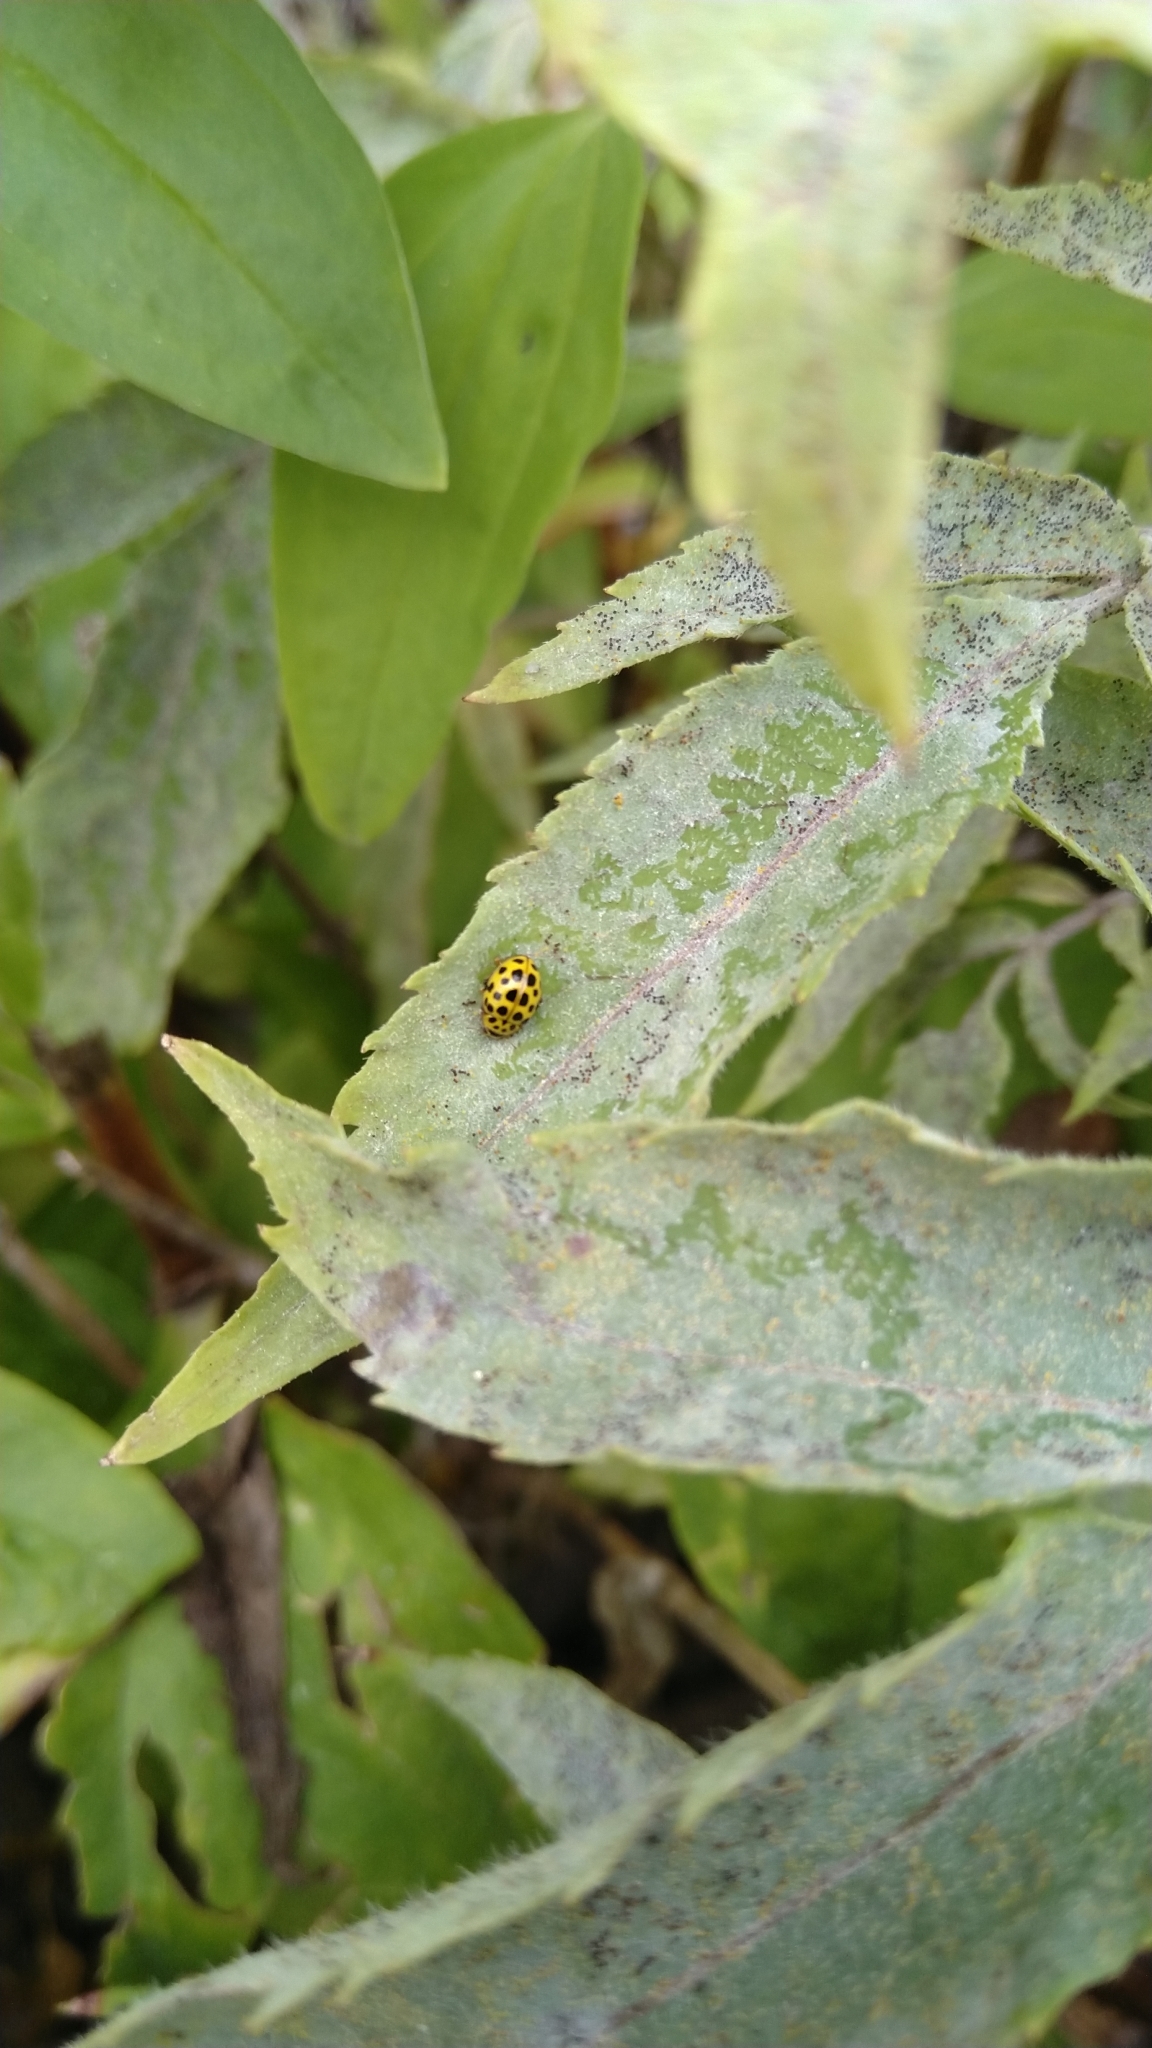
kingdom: Animalia
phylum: Arthropoda
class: Insecta
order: Coleoptera
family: Coccinellidae
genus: Psyllobora
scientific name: Psyllobora vigintiduopunctata
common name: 22-spot ladybird
